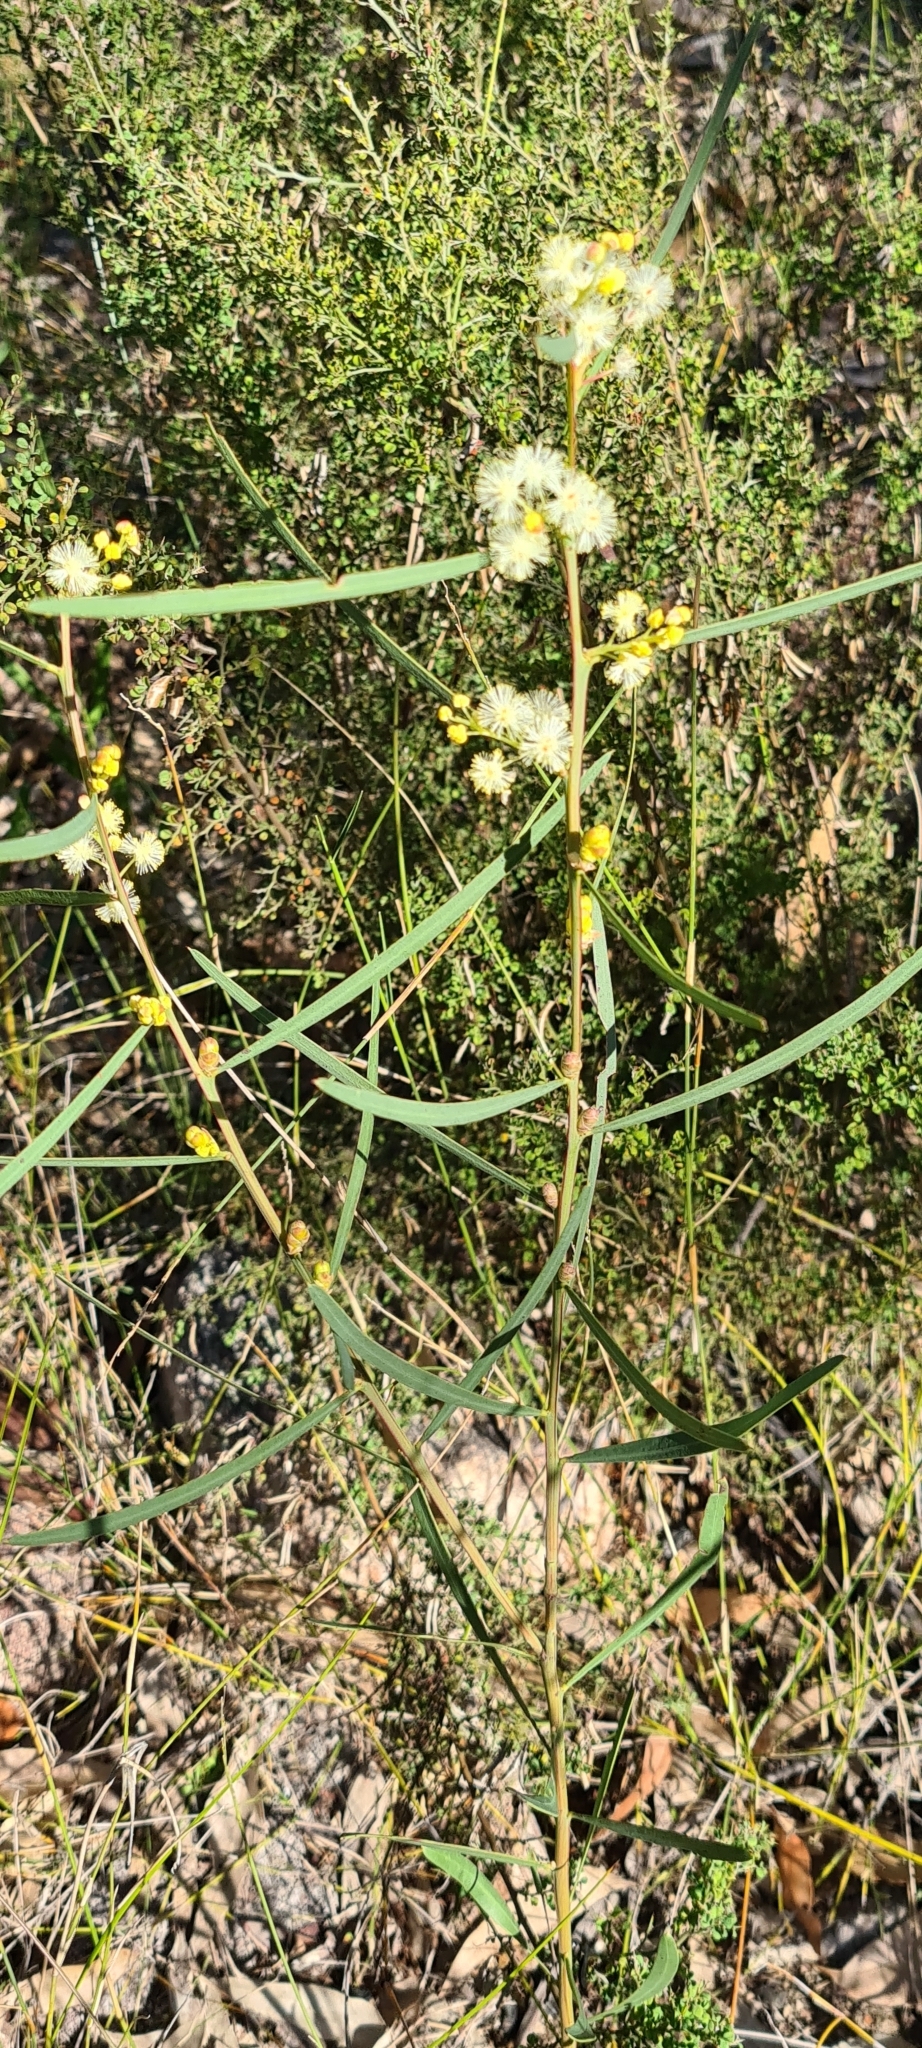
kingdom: Plantae
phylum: Tracheophyta
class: Magnoliopsida
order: Fabales
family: Fabaceae
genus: Acacia
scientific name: Acacia suaveolens
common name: Sweet acacia
